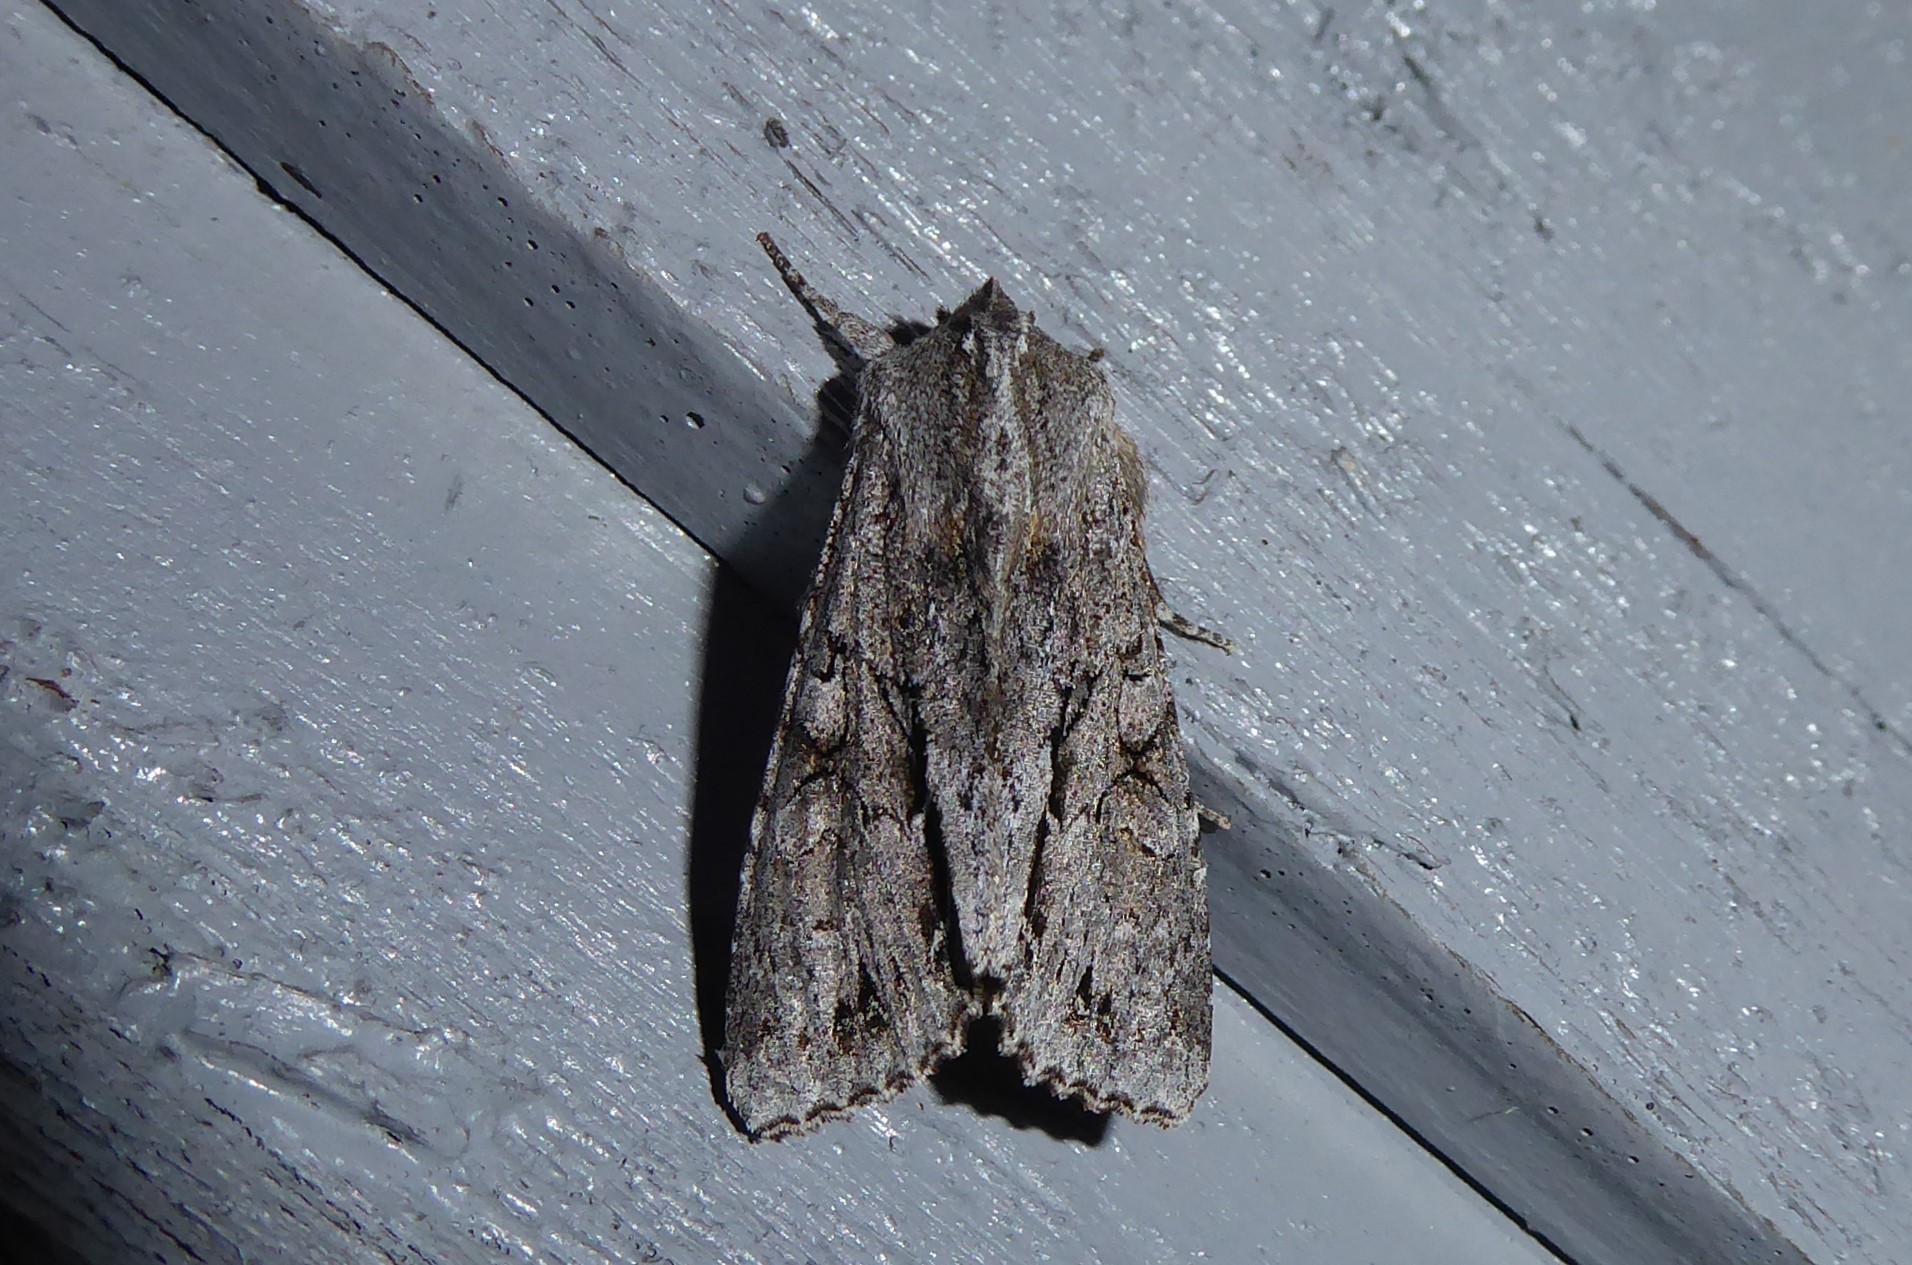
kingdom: Animalia
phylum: Arthropoda
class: Insecta
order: Lepidoptera
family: Noctuidae
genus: Ichneutica
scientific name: Ichneutica
